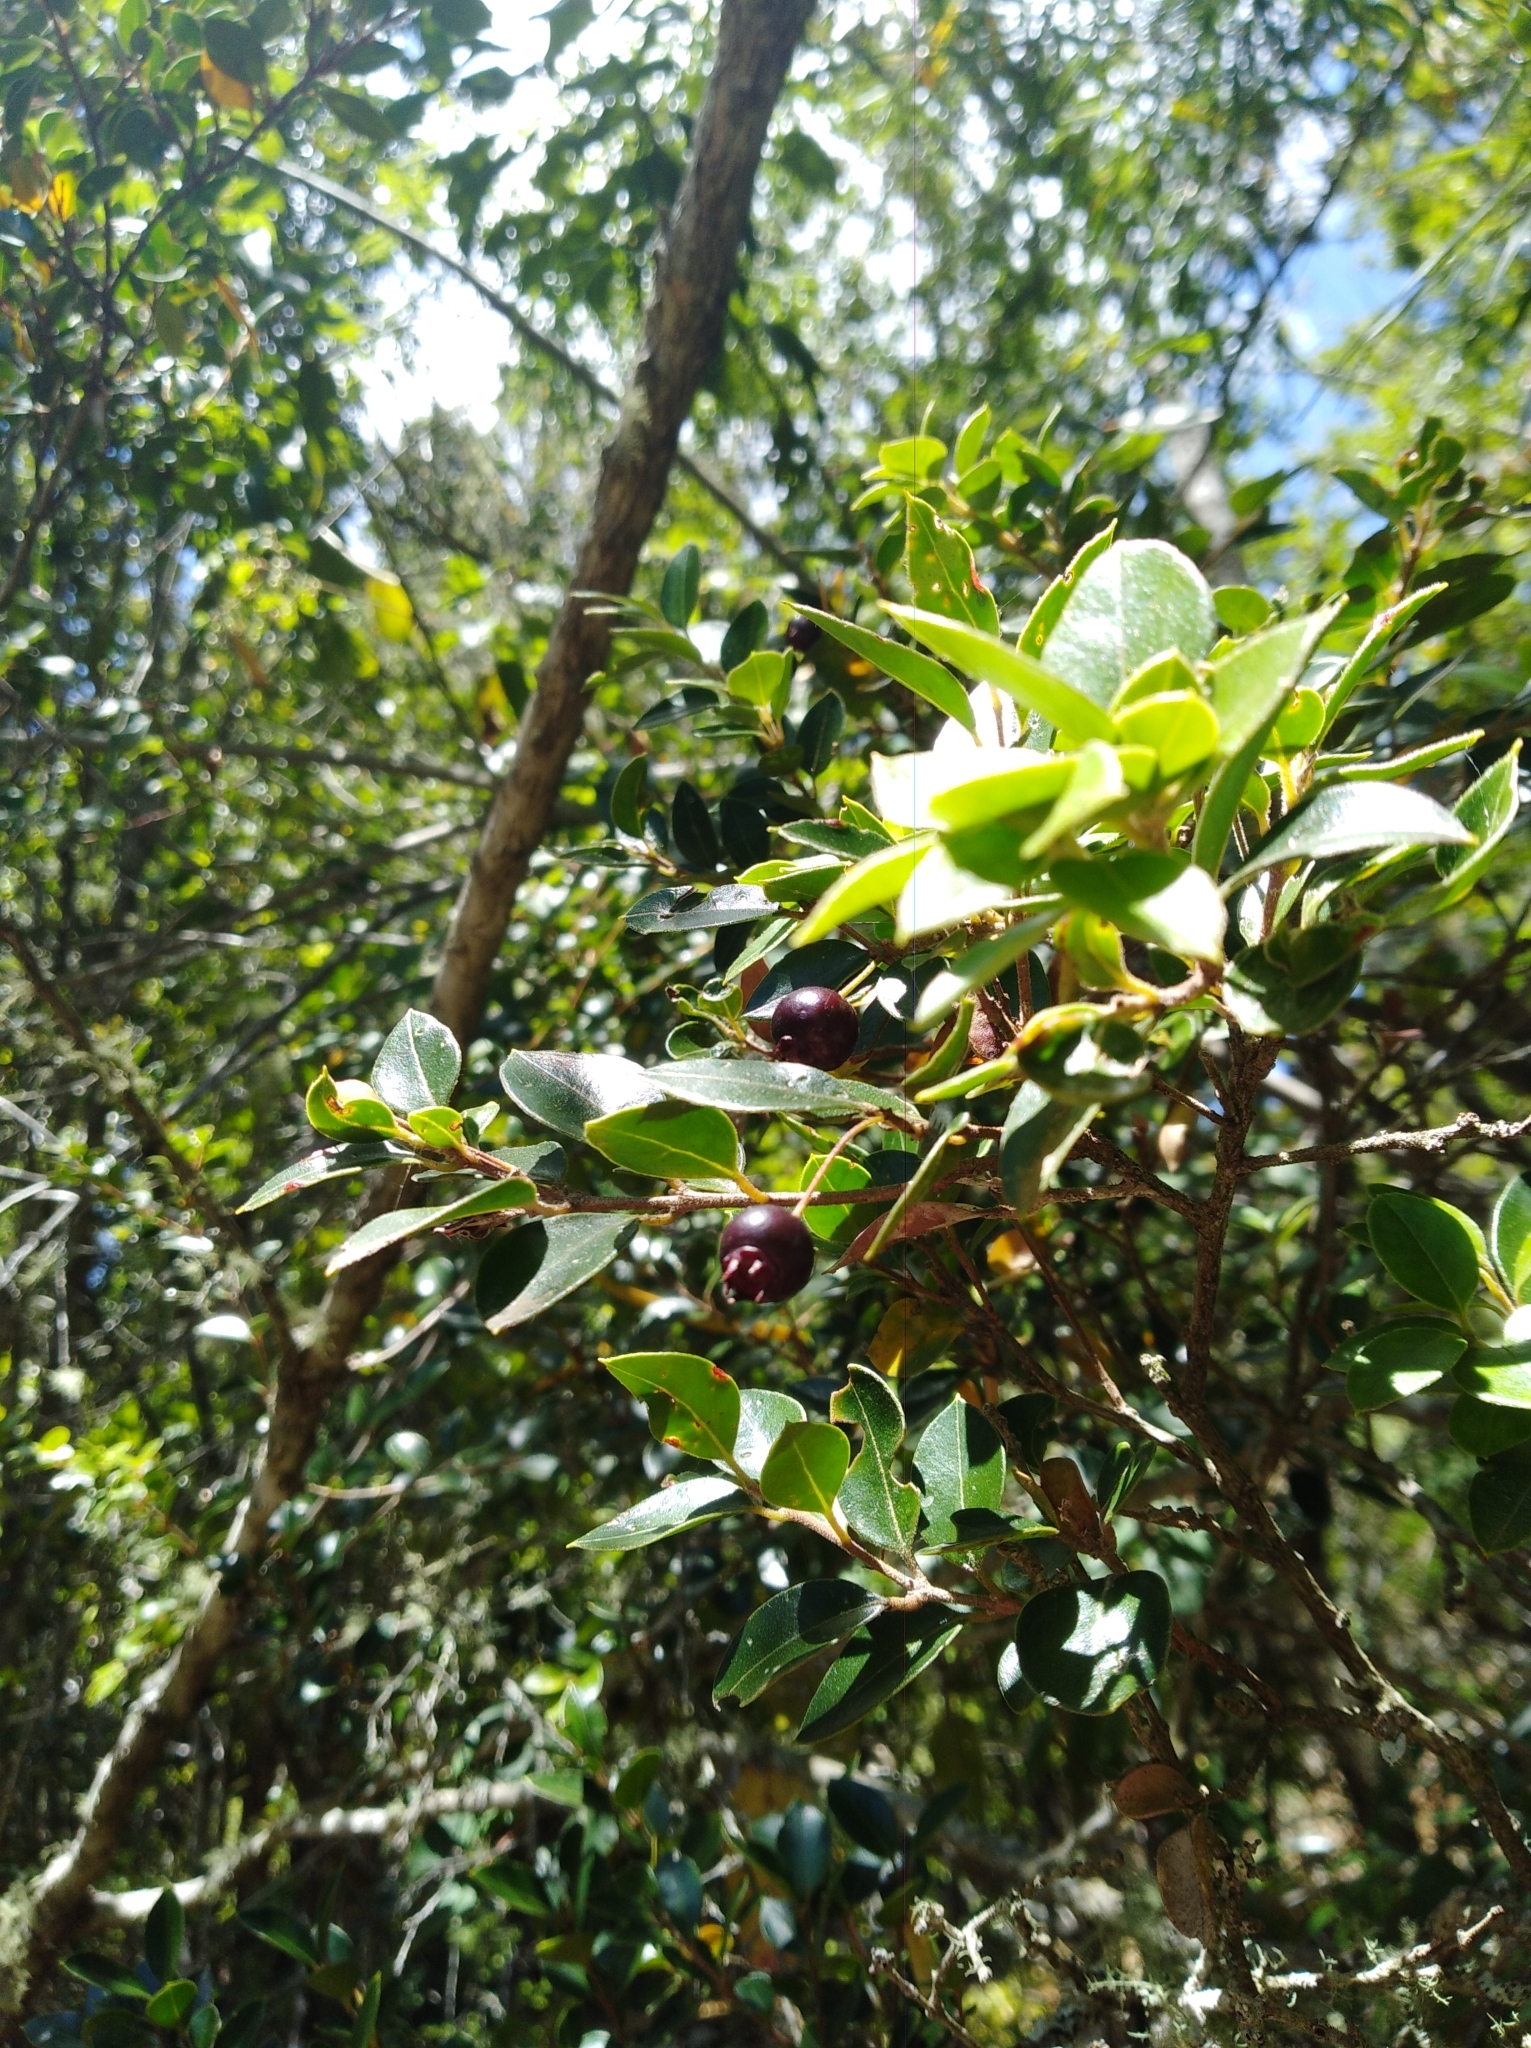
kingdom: Plantae
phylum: Tracheophyta
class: Magnoliopsida
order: Myrtales
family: Myrtaceae
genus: Amomyrtus
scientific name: Amomyrtus luma
